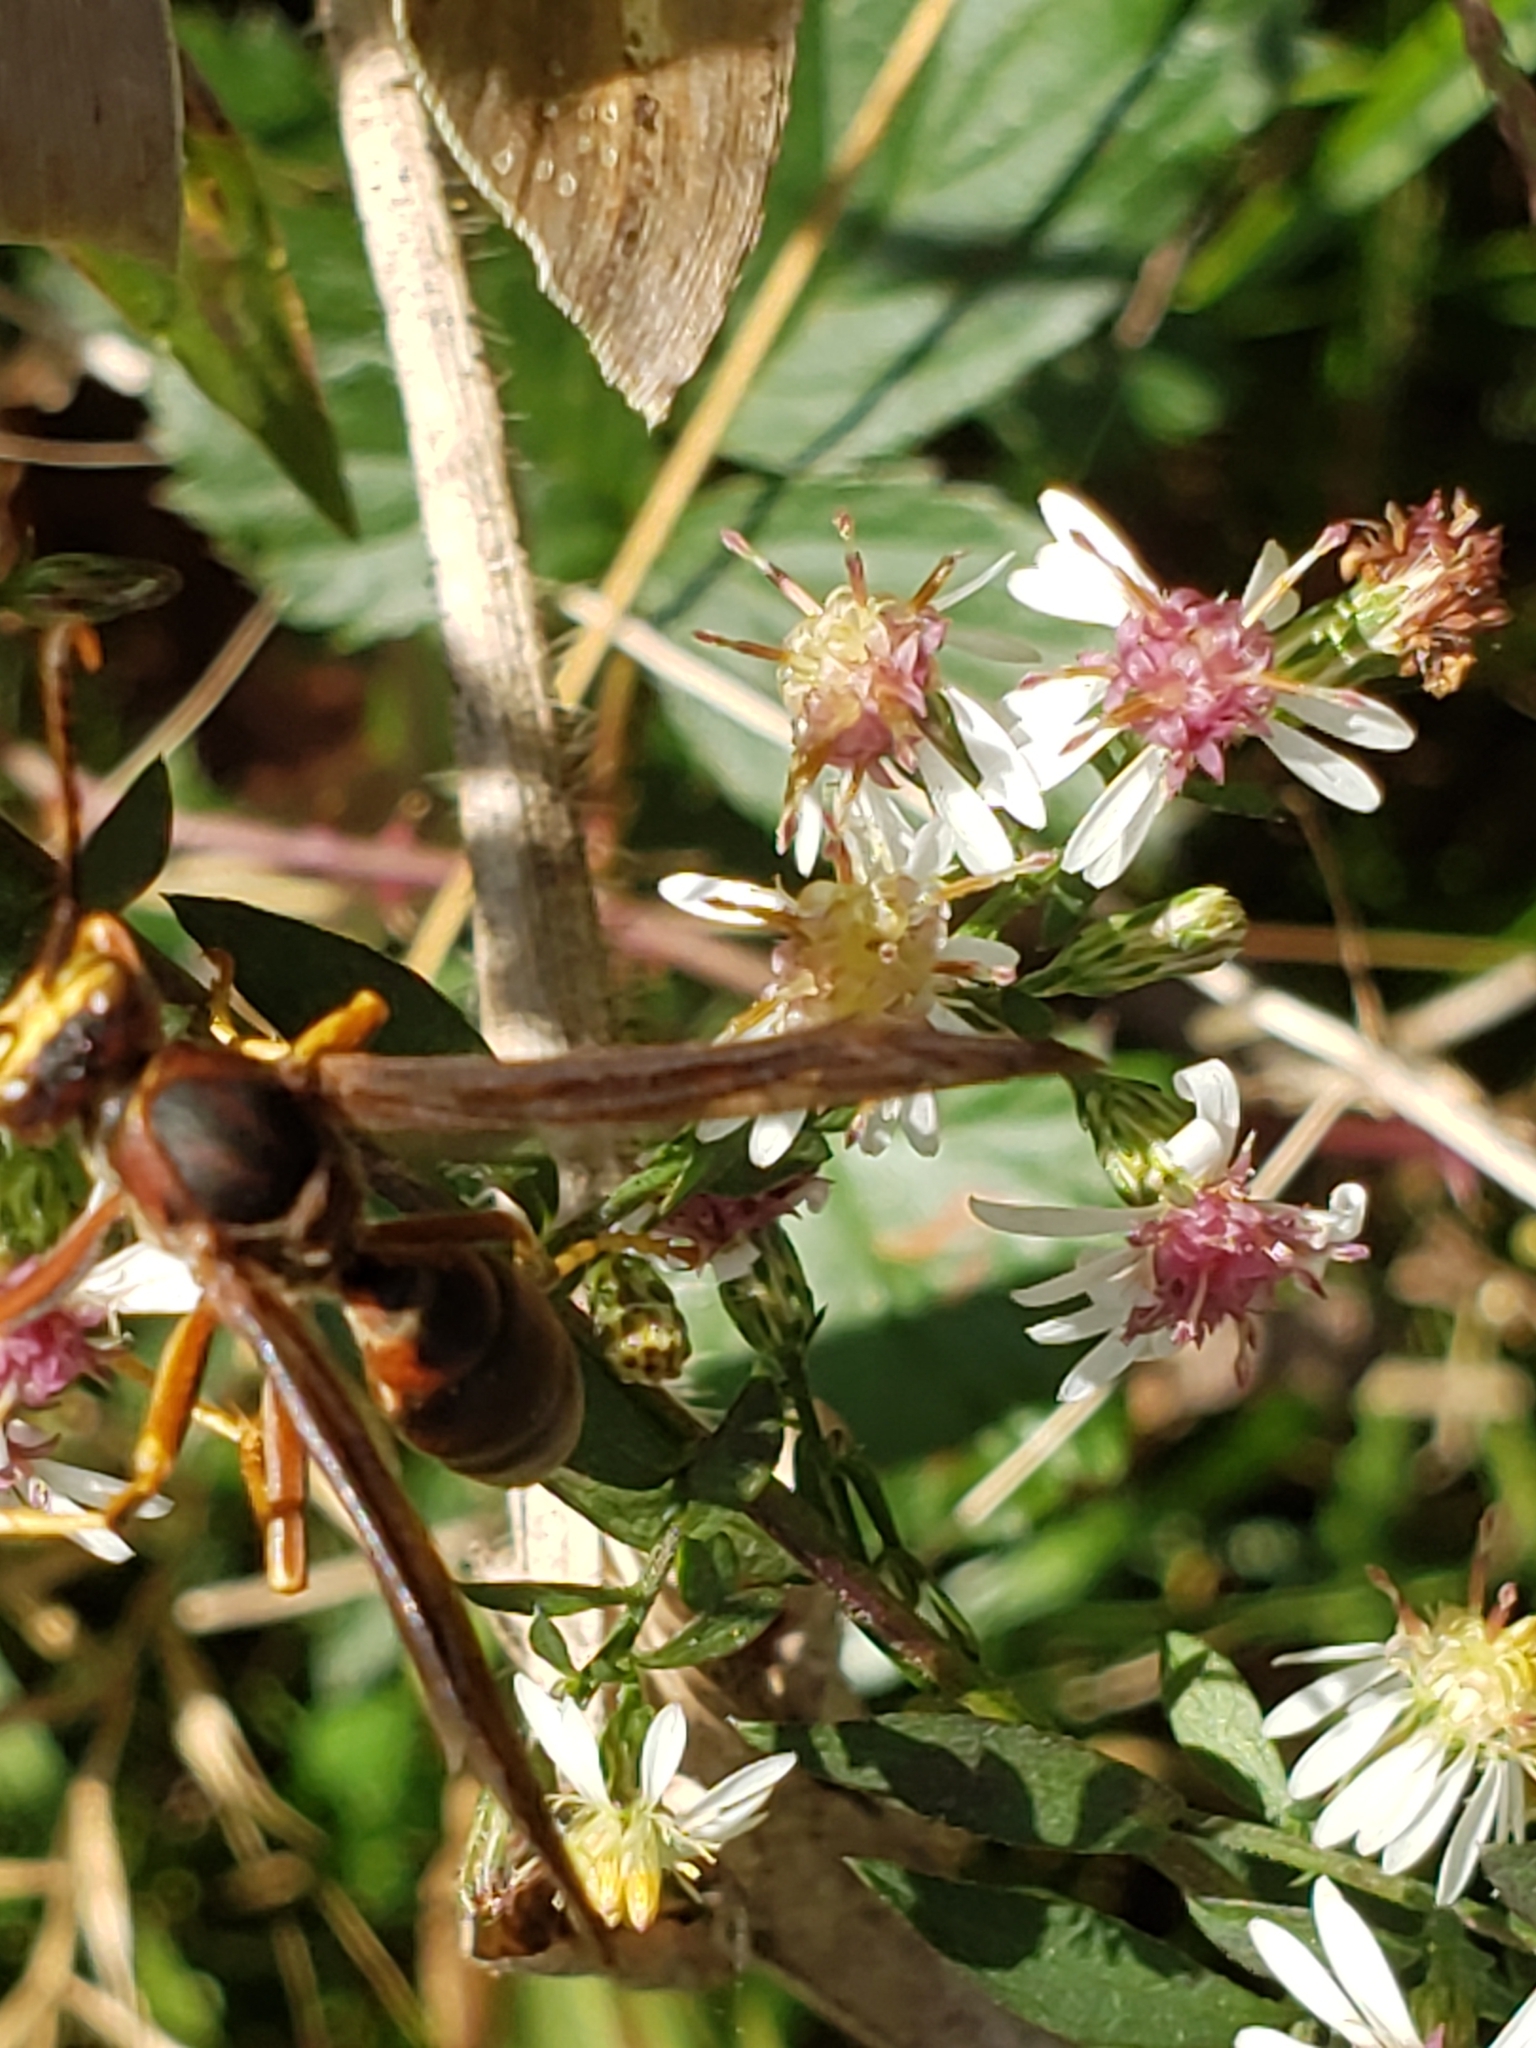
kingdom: Animalia
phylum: Arthropoda
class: Insecta
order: Hymenoptera
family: Eumenidae
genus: Polistes
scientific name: Polistes metricus
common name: Metric paper wasp
